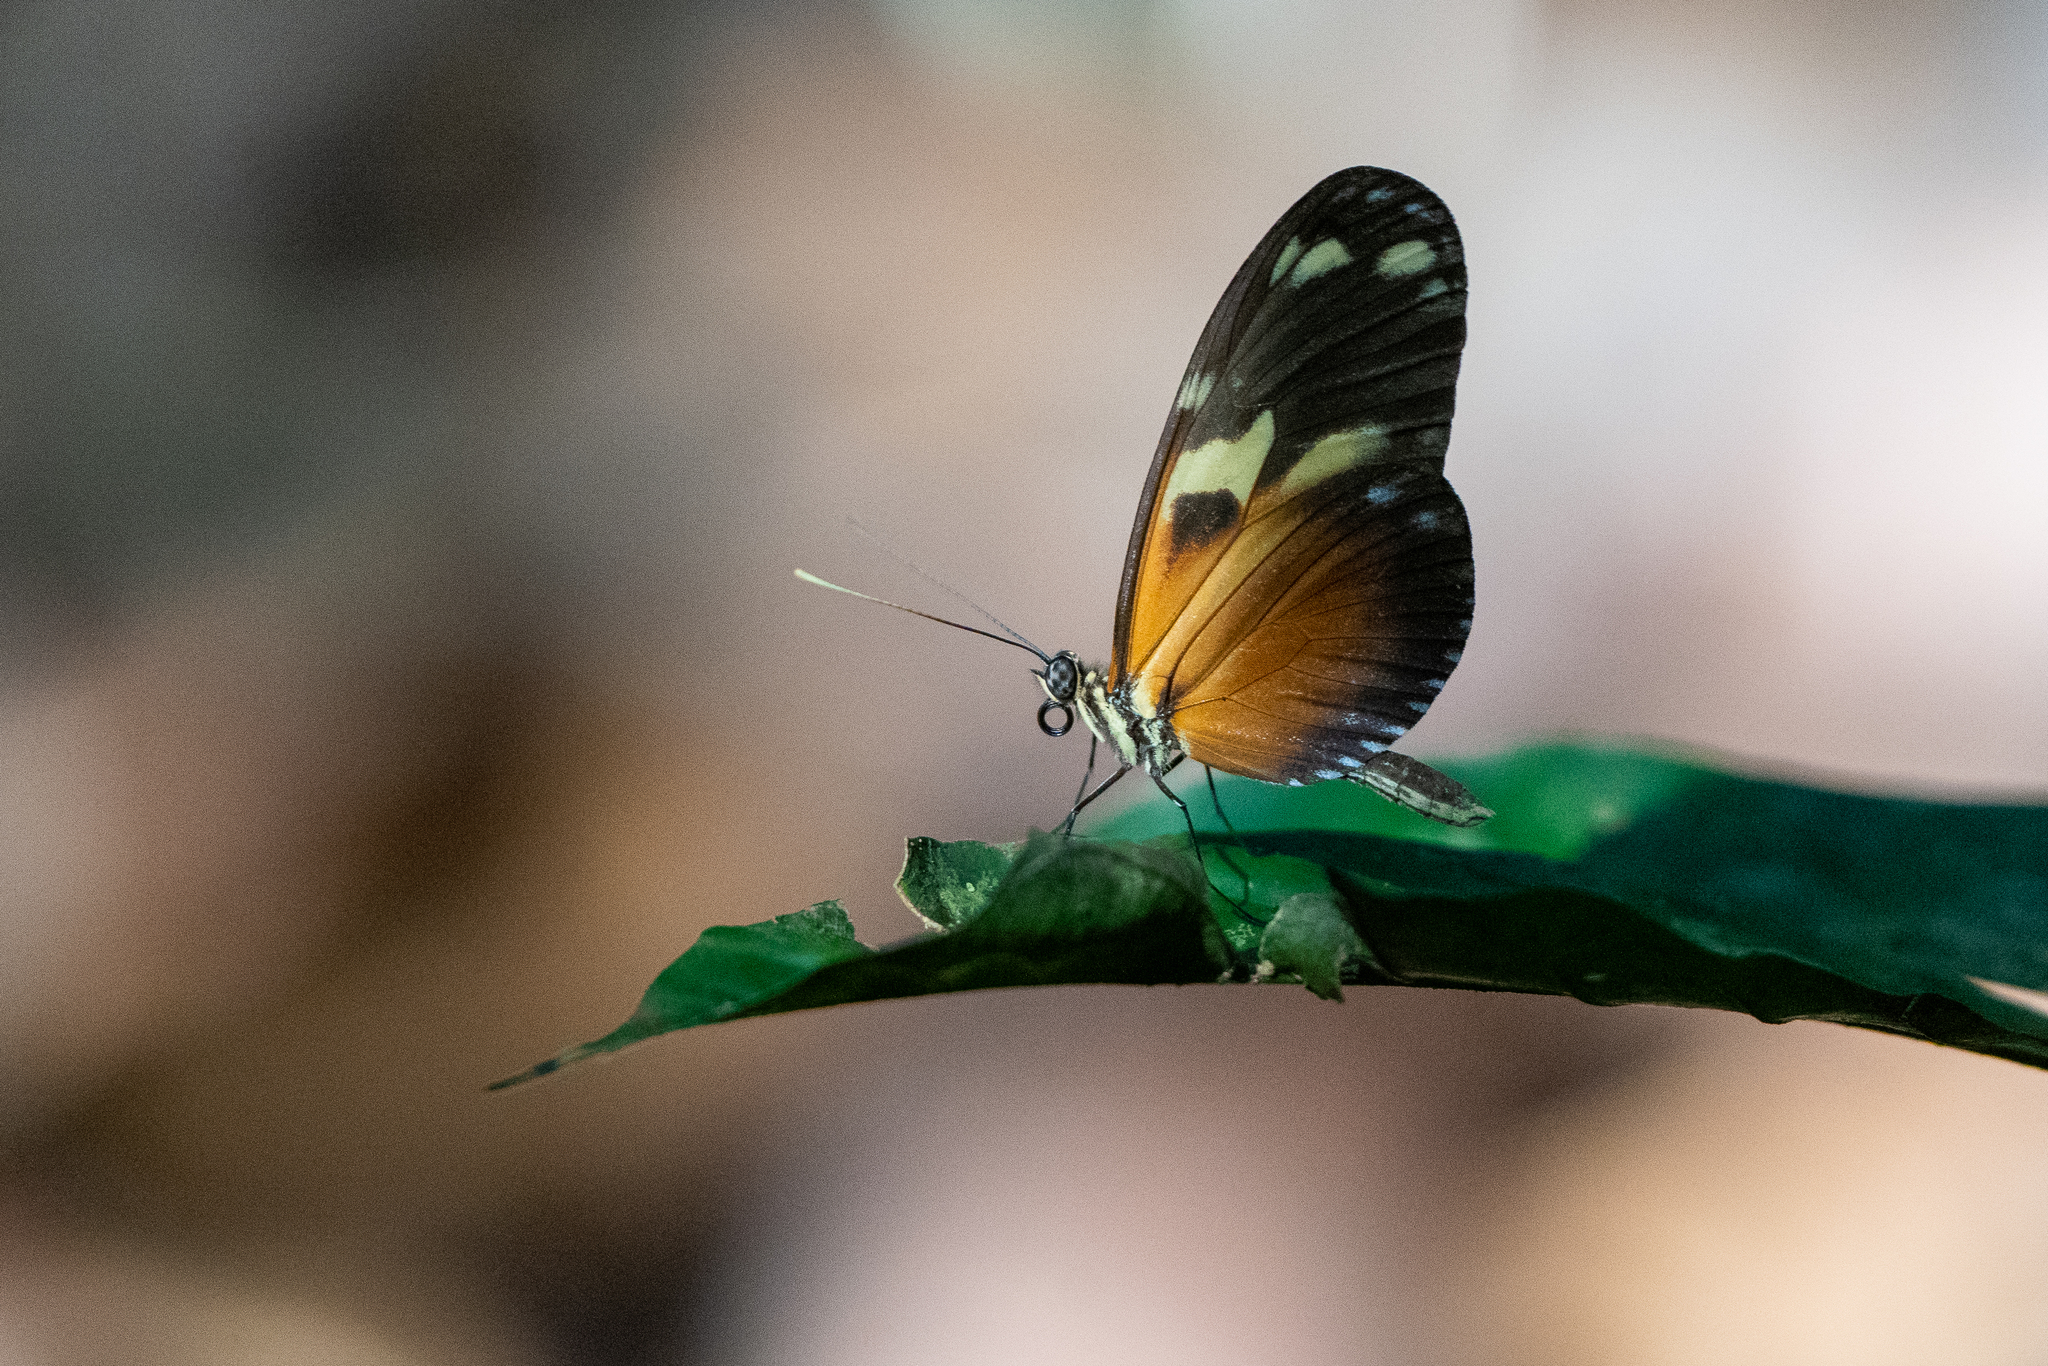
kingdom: Animalia
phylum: Arthropoda
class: Insecta
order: Lepidoptera
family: Nymphalidae
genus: Heliconius
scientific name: Heliconius ismenius
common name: Ismenius tiger
